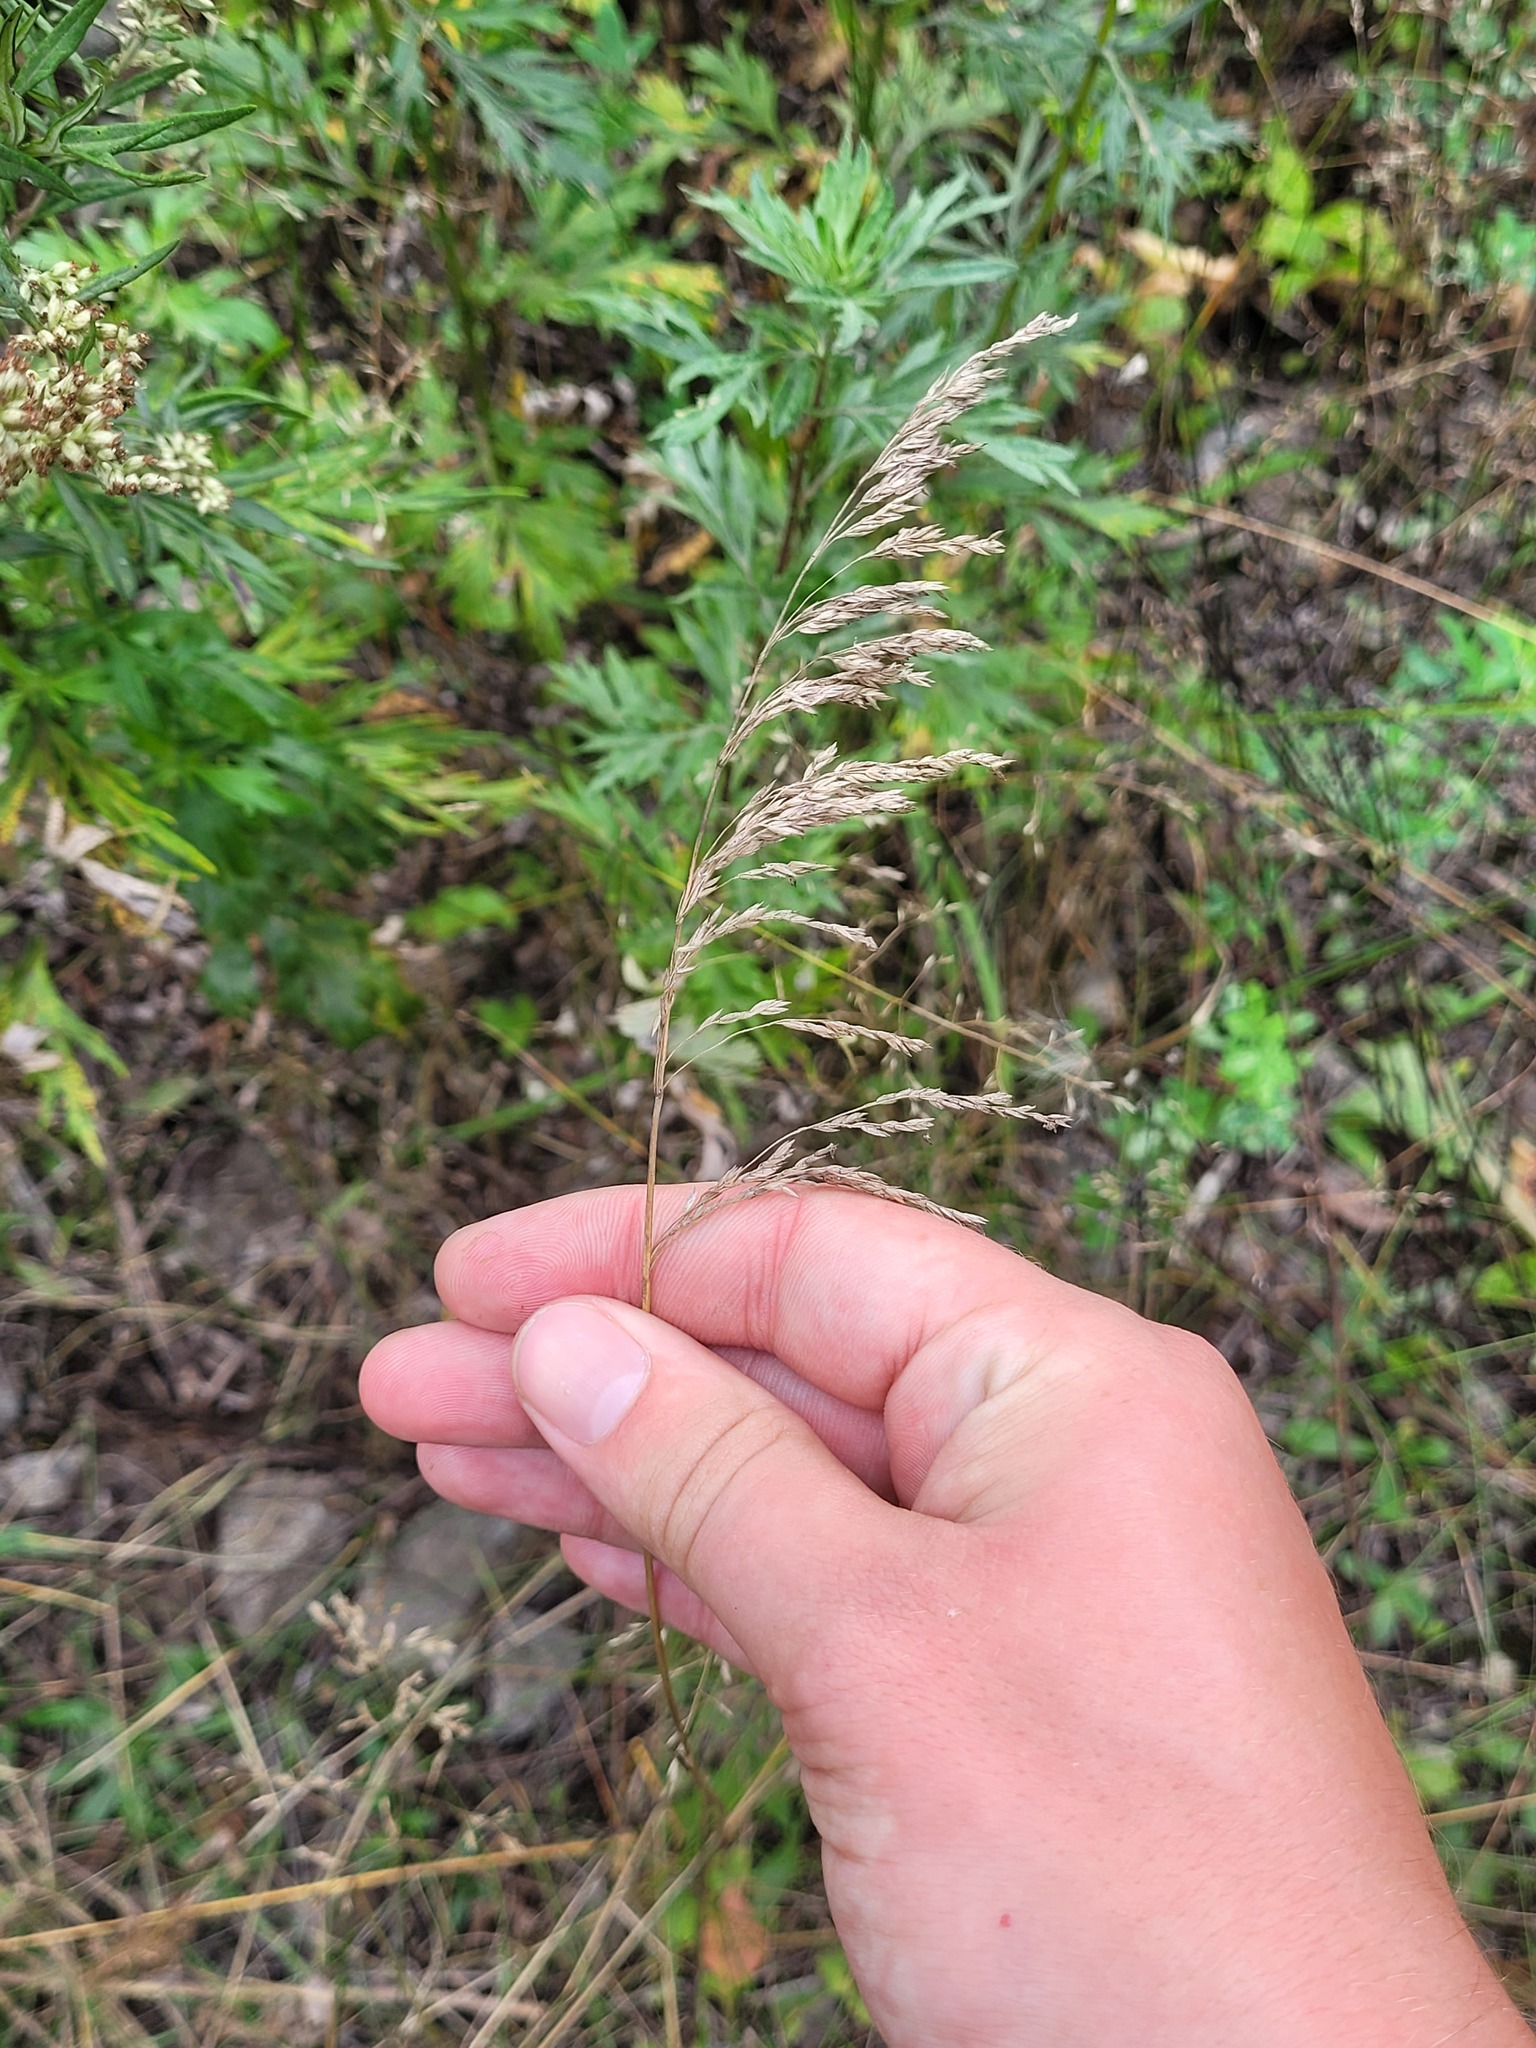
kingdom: Plantae
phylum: Tracheophyta
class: Liliopsida
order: Poales
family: Poaceae
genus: Poa
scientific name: Poa angustifolia
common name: Narrow-leaved meadow-grass
